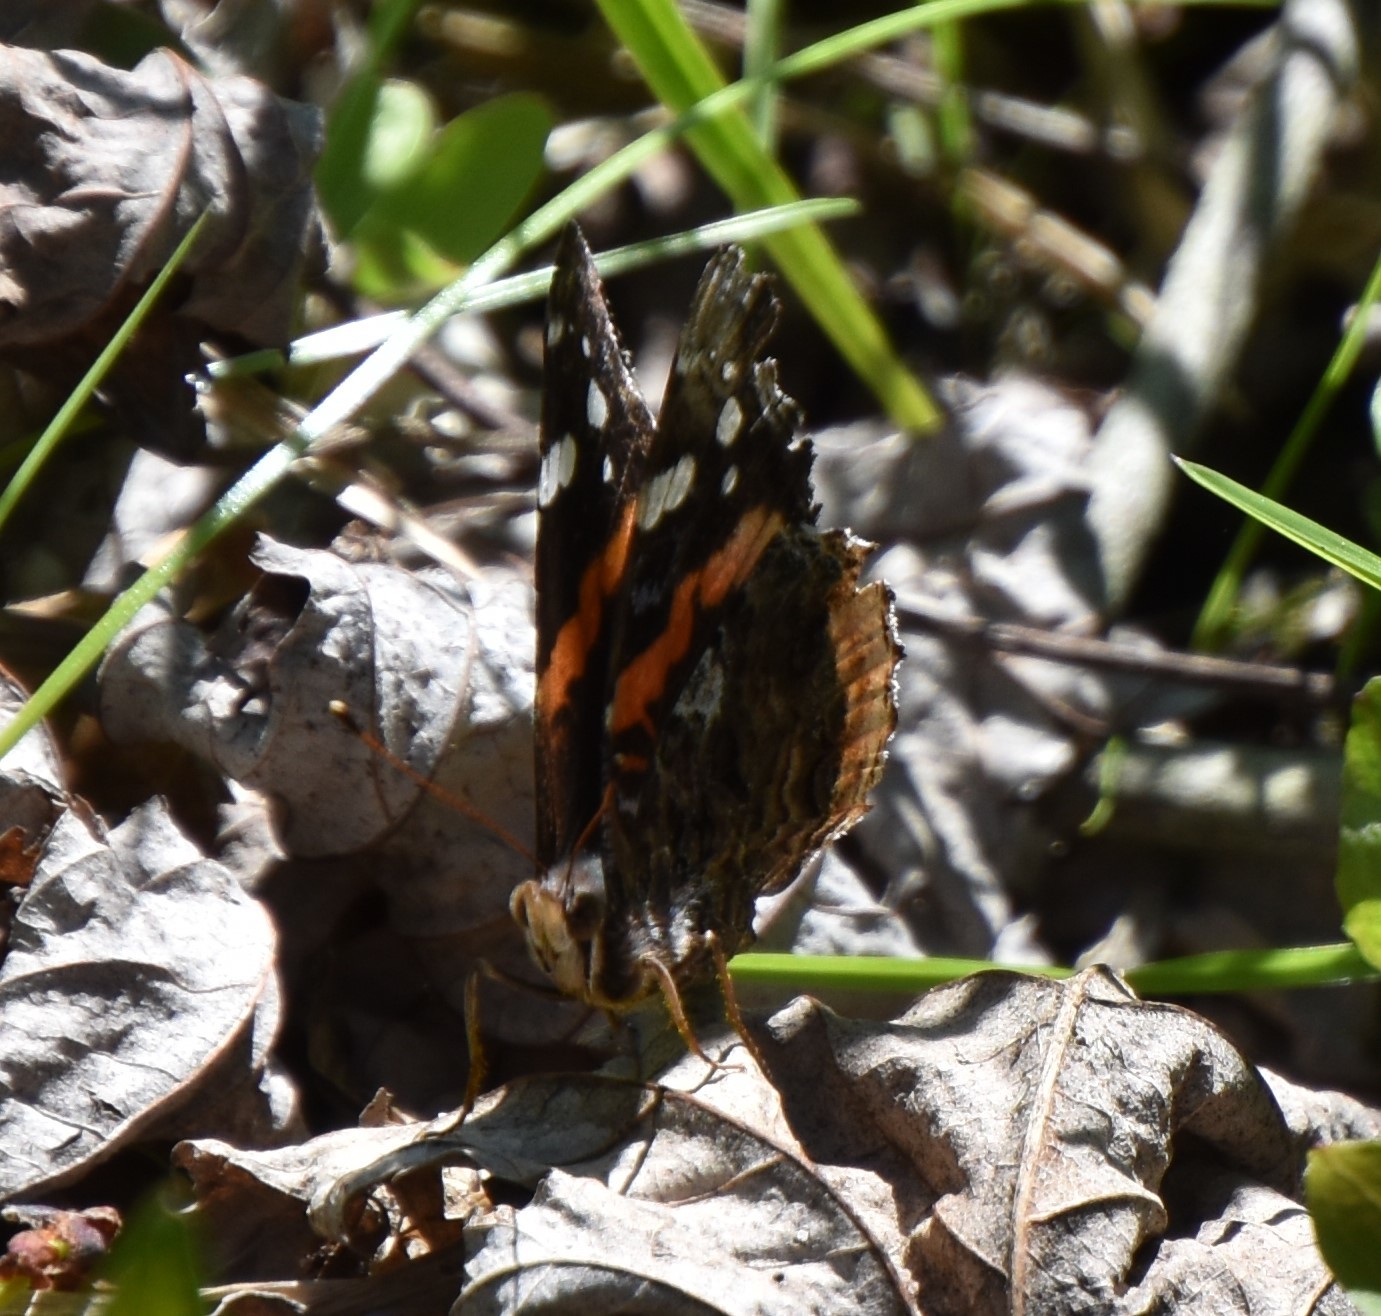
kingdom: Animalia
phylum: Arthropoda
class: Insecta
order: Lepidoptera
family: Nymphalidae
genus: Vanessa
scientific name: Vanessa atalanta
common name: Red admiral
